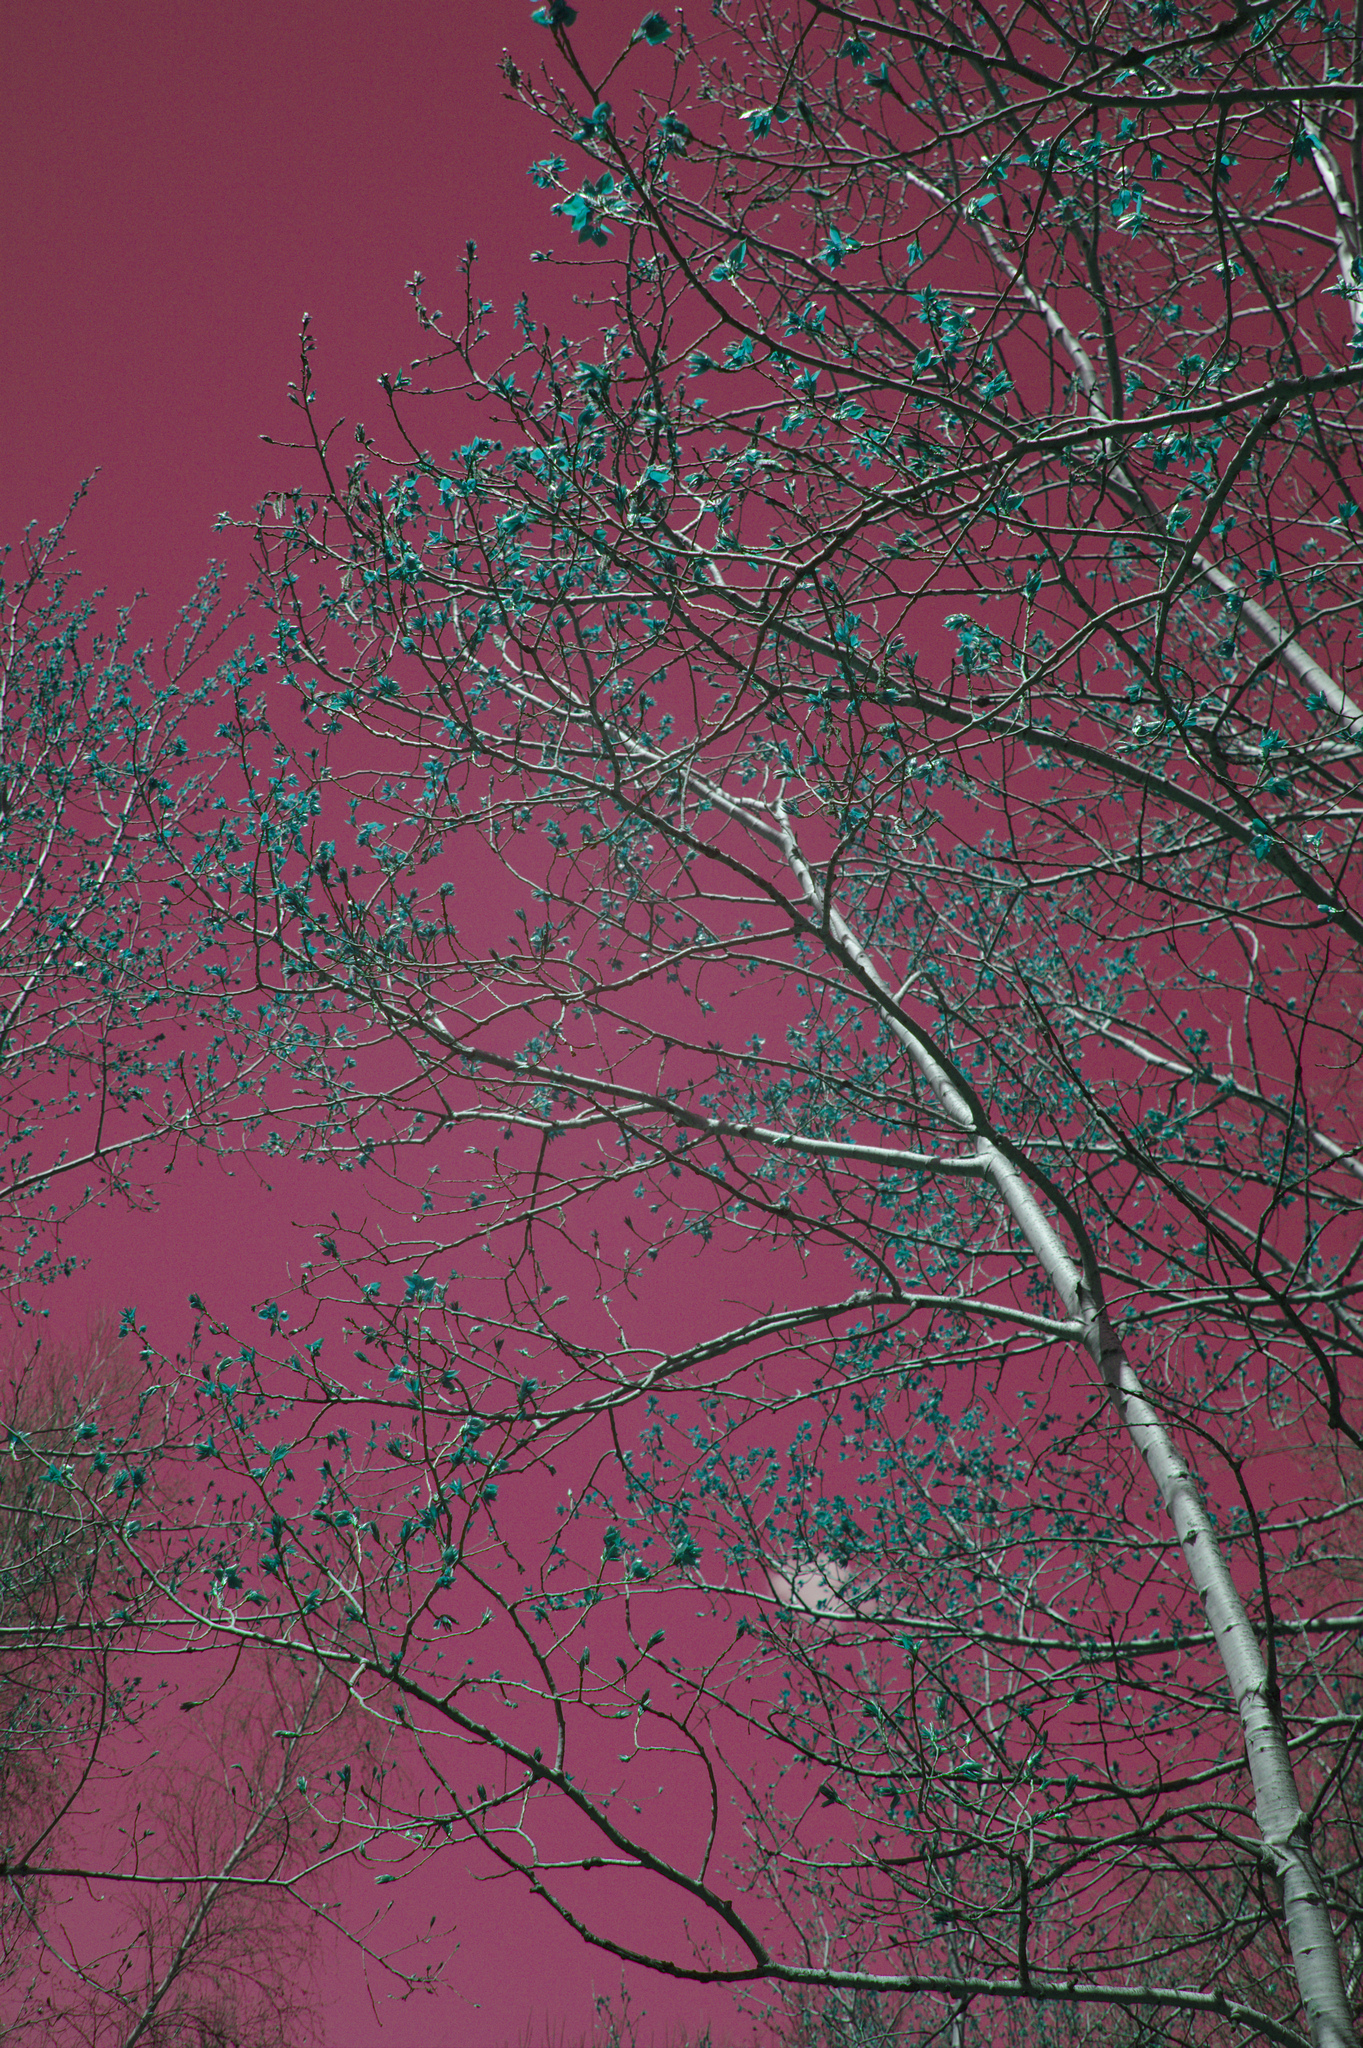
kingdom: Plantae
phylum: Tracheophyta
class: Magnoliopsida
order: Malpighiales
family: Salicaceae
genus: Populus
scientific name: Populus tremuloides
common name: Quaking aspen
